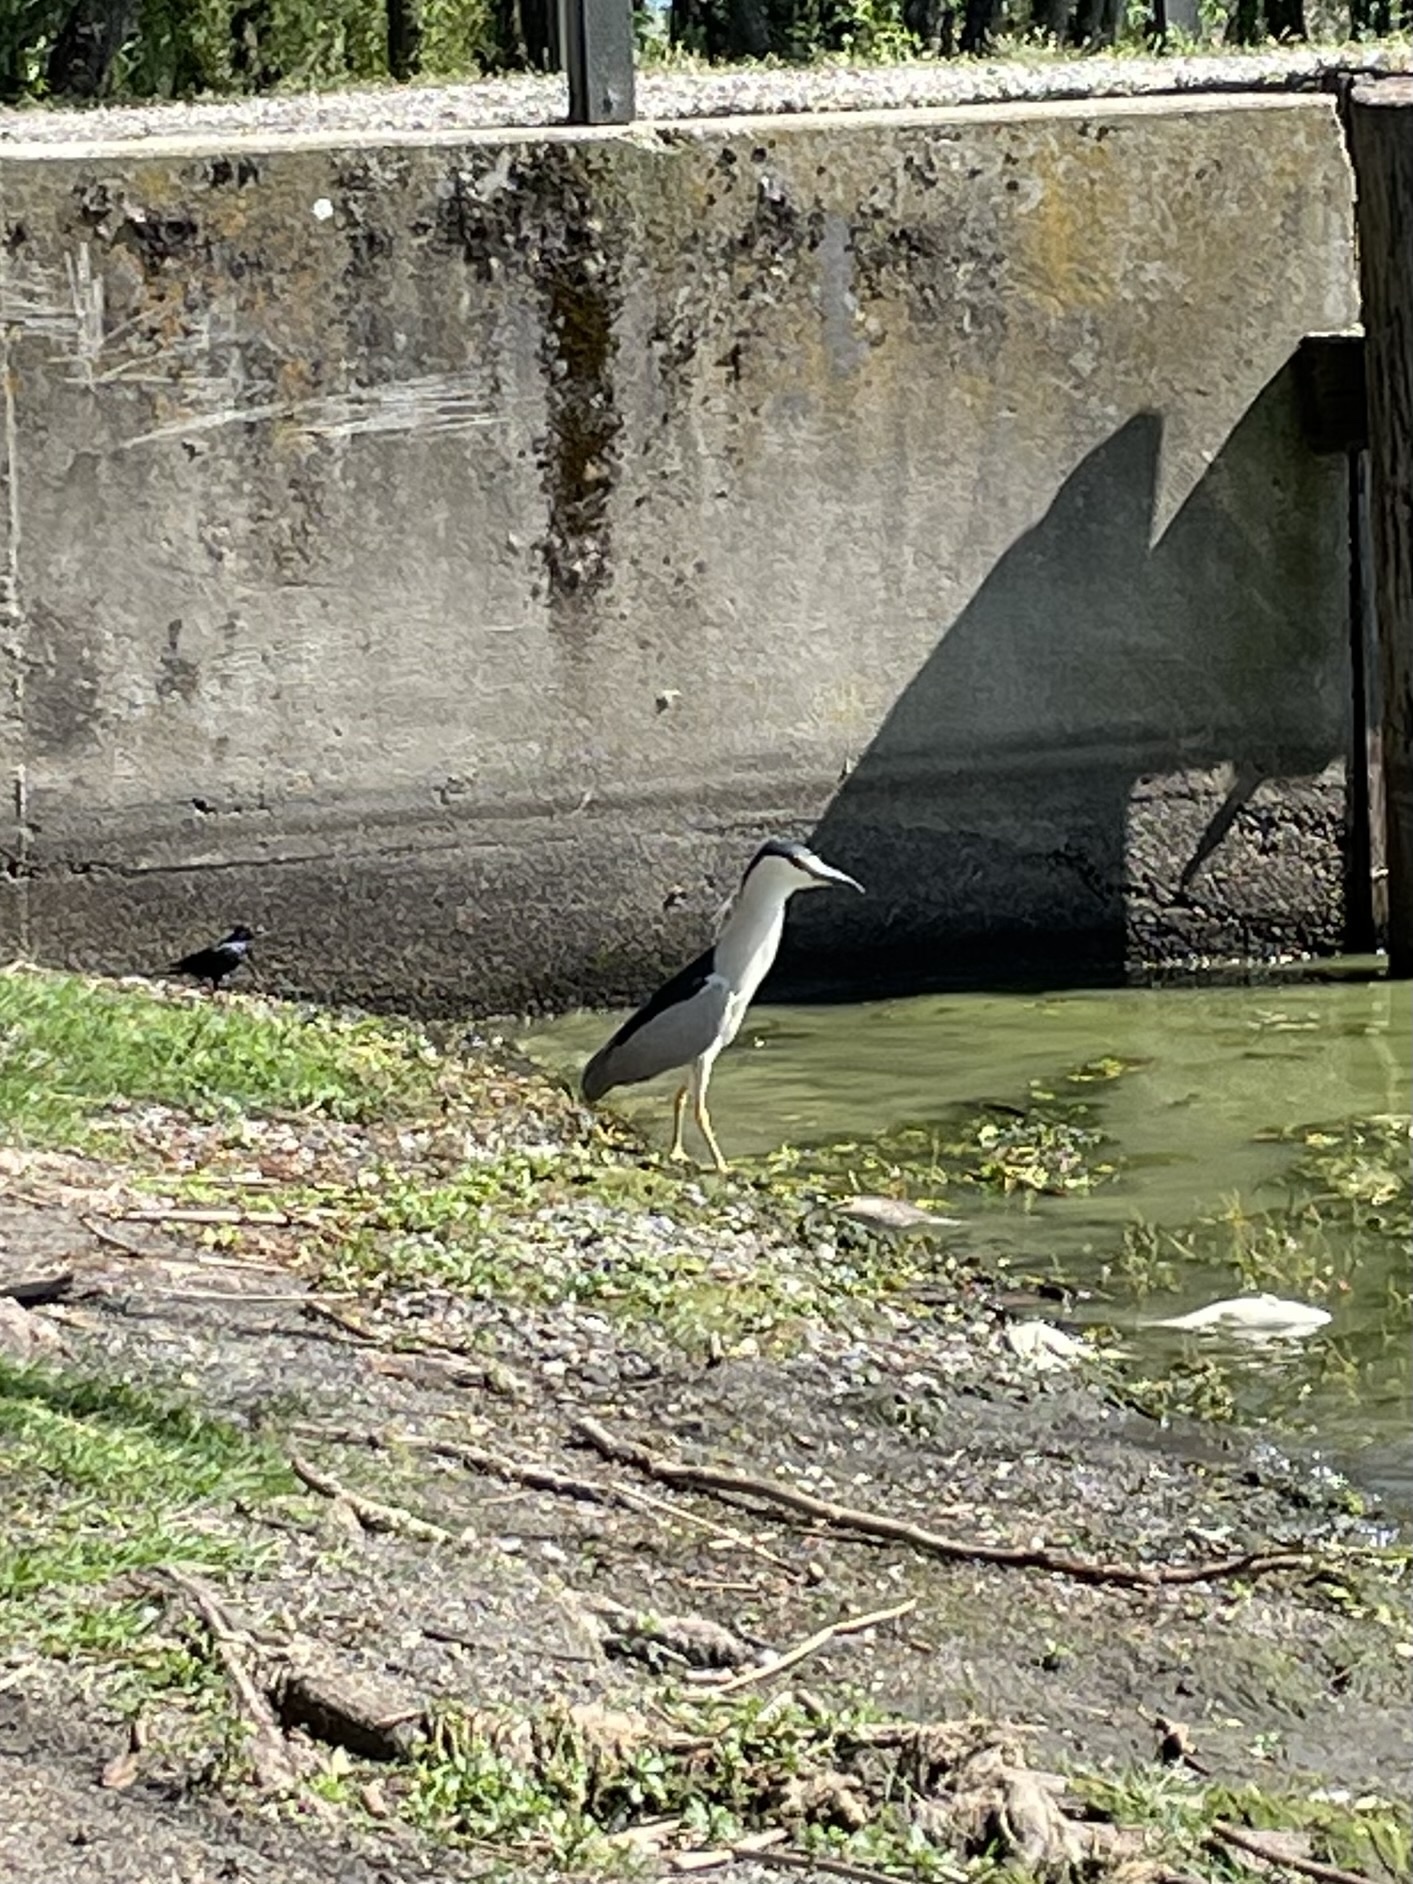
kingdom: Animalia
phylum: Chordata
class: Aves
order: Pelecaniformes
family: Ardeidae
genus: Nycticorax
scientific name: Nycticorax nycticorax
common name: Black-crowned night heron
